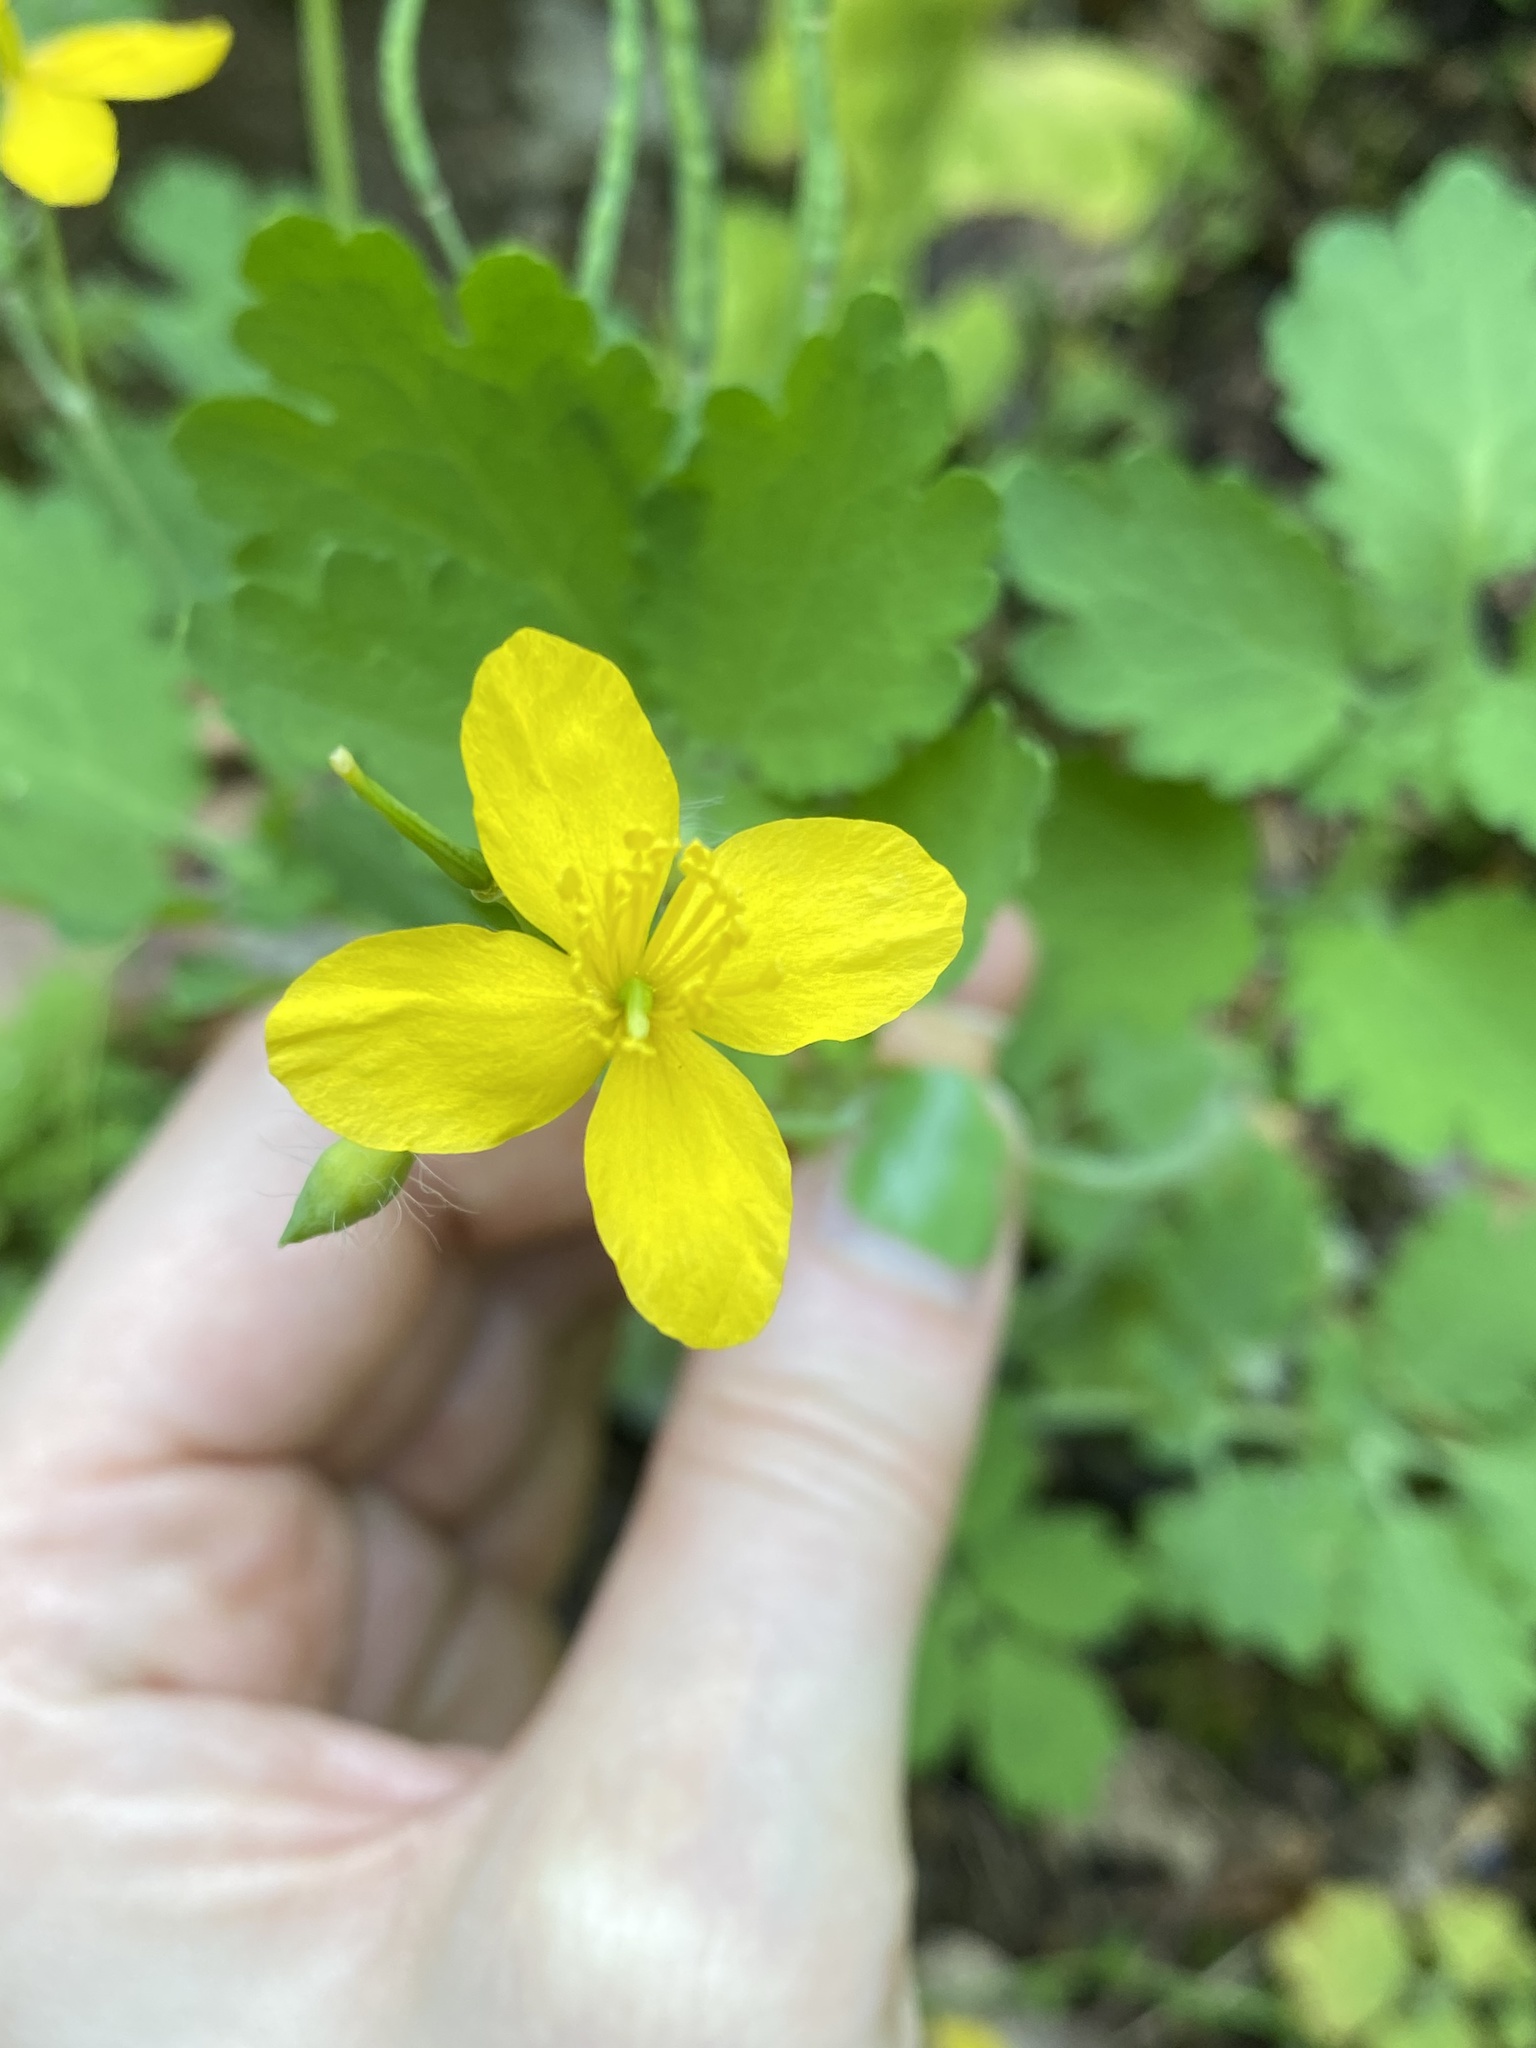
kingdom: Plantae
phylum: Tracheophyta
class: Magnoliopsida
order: Ranunculales
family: Papaveraceae
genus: Chelidonium
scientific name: Chelidonium majus
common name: Greater celandine
